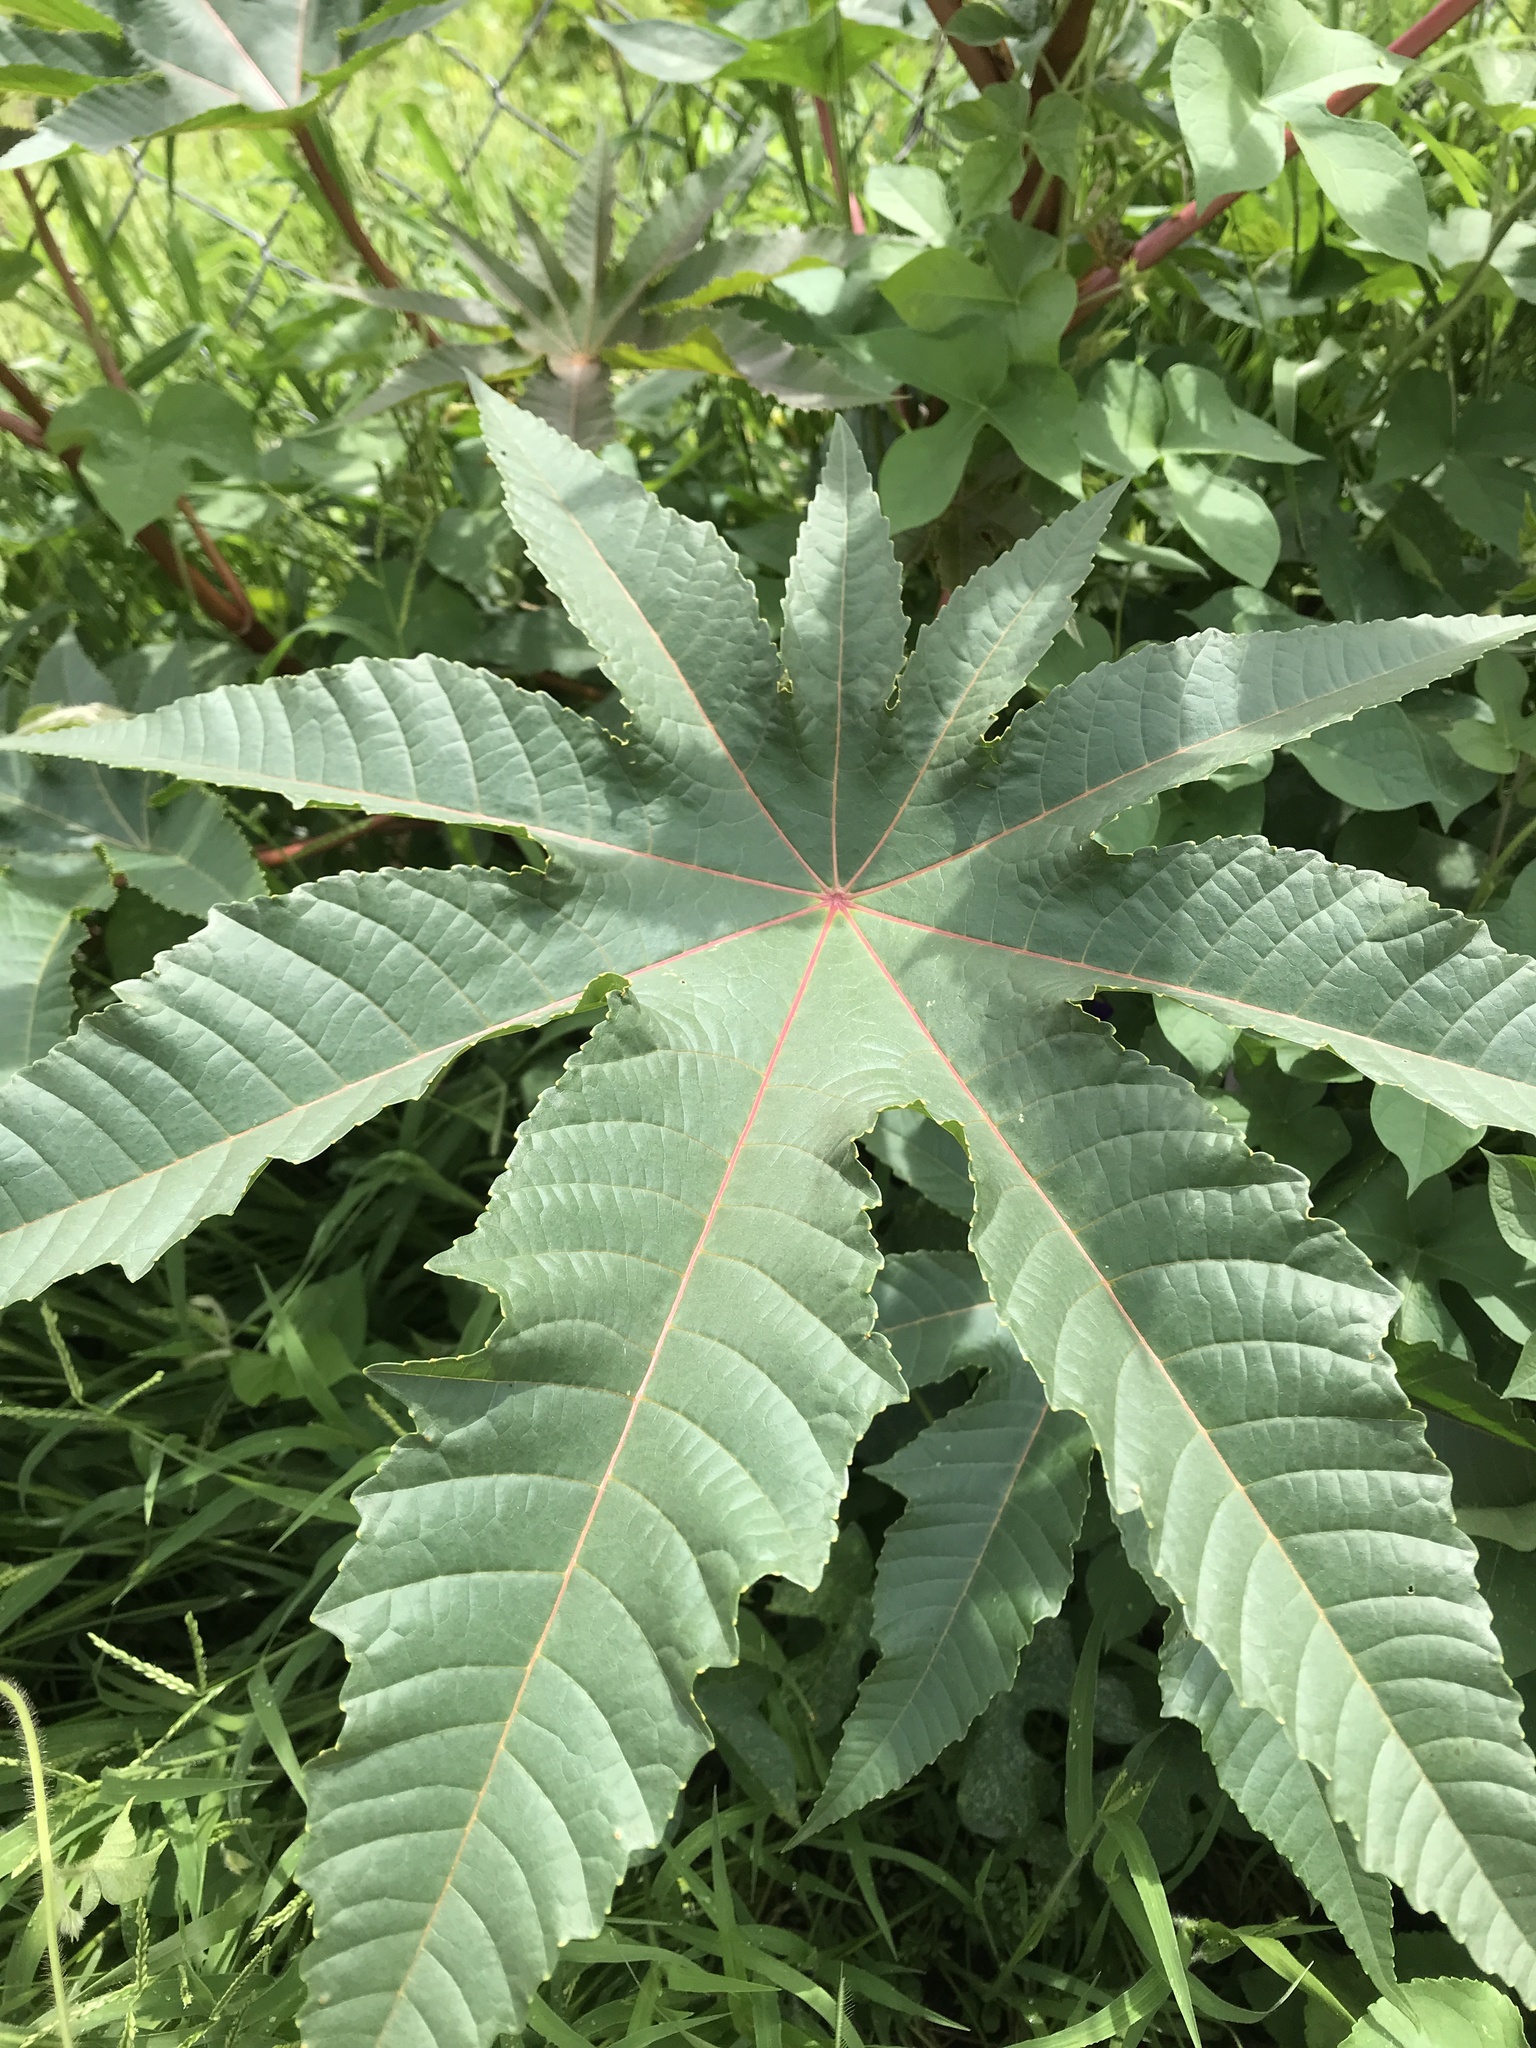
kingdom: Plantae
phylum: Tracheophyta
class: Magnoliopsida
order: Malpighiales
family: Euphorbiaceae
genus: Ricinus
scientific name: Ricinus communis
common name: Castor-oil-plant
